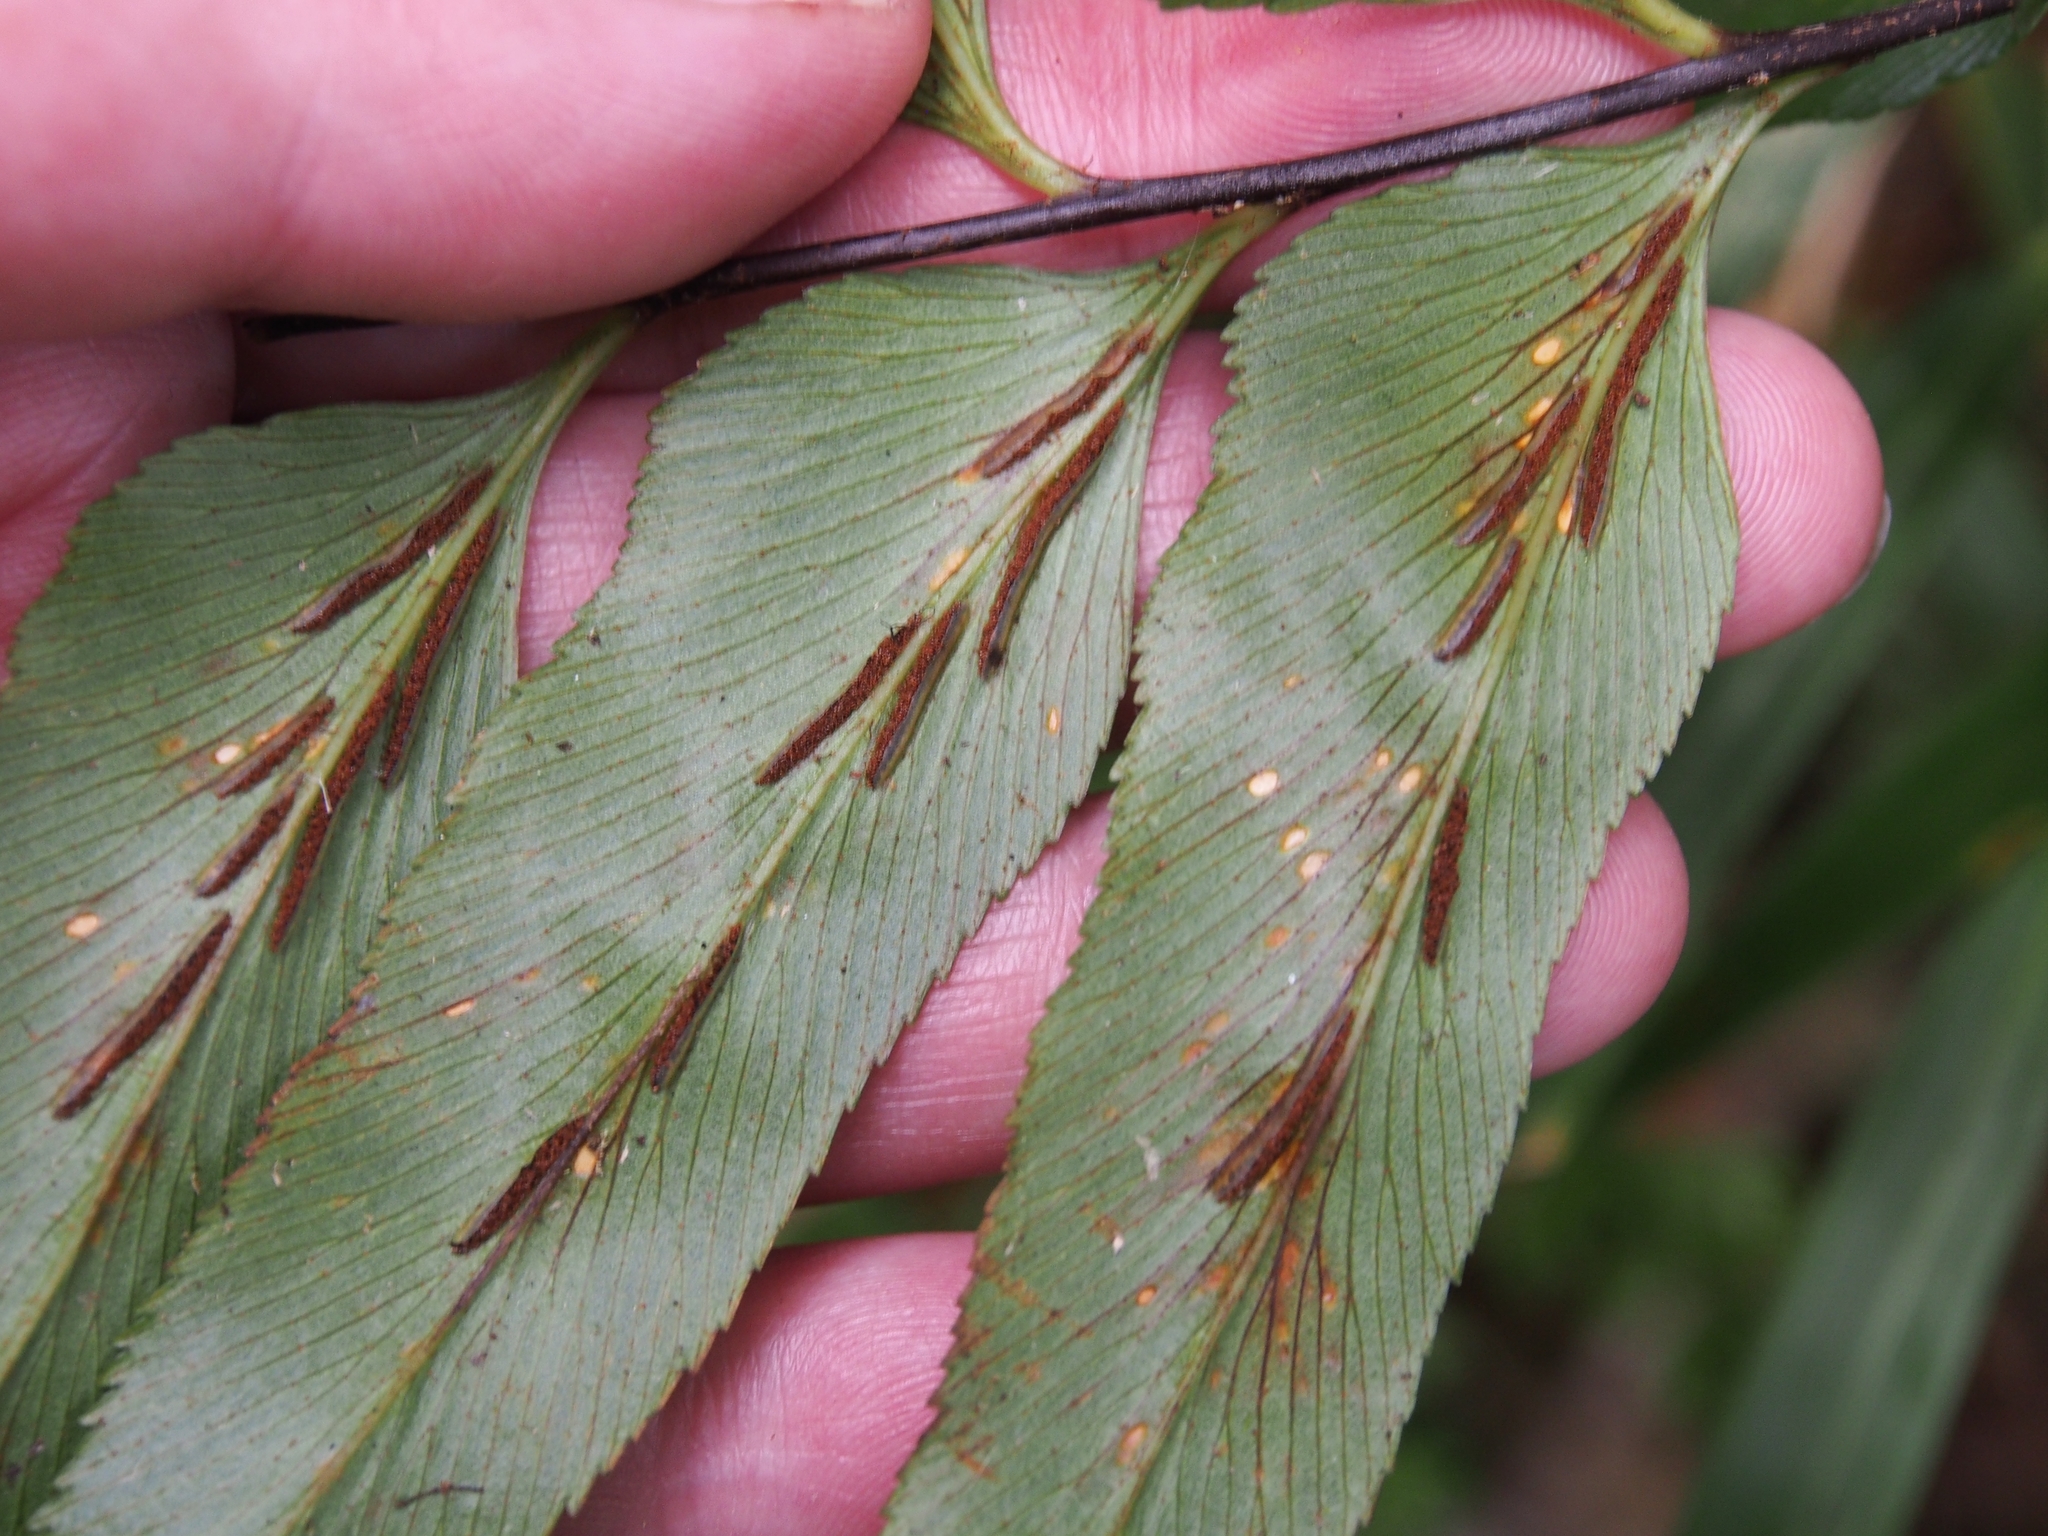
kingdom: Plantae
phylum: Tracheophyta
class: Polypodiopsida
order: Polypodiales
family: Aspleniaceae
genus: Asplenium
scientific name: Asplenium serra
